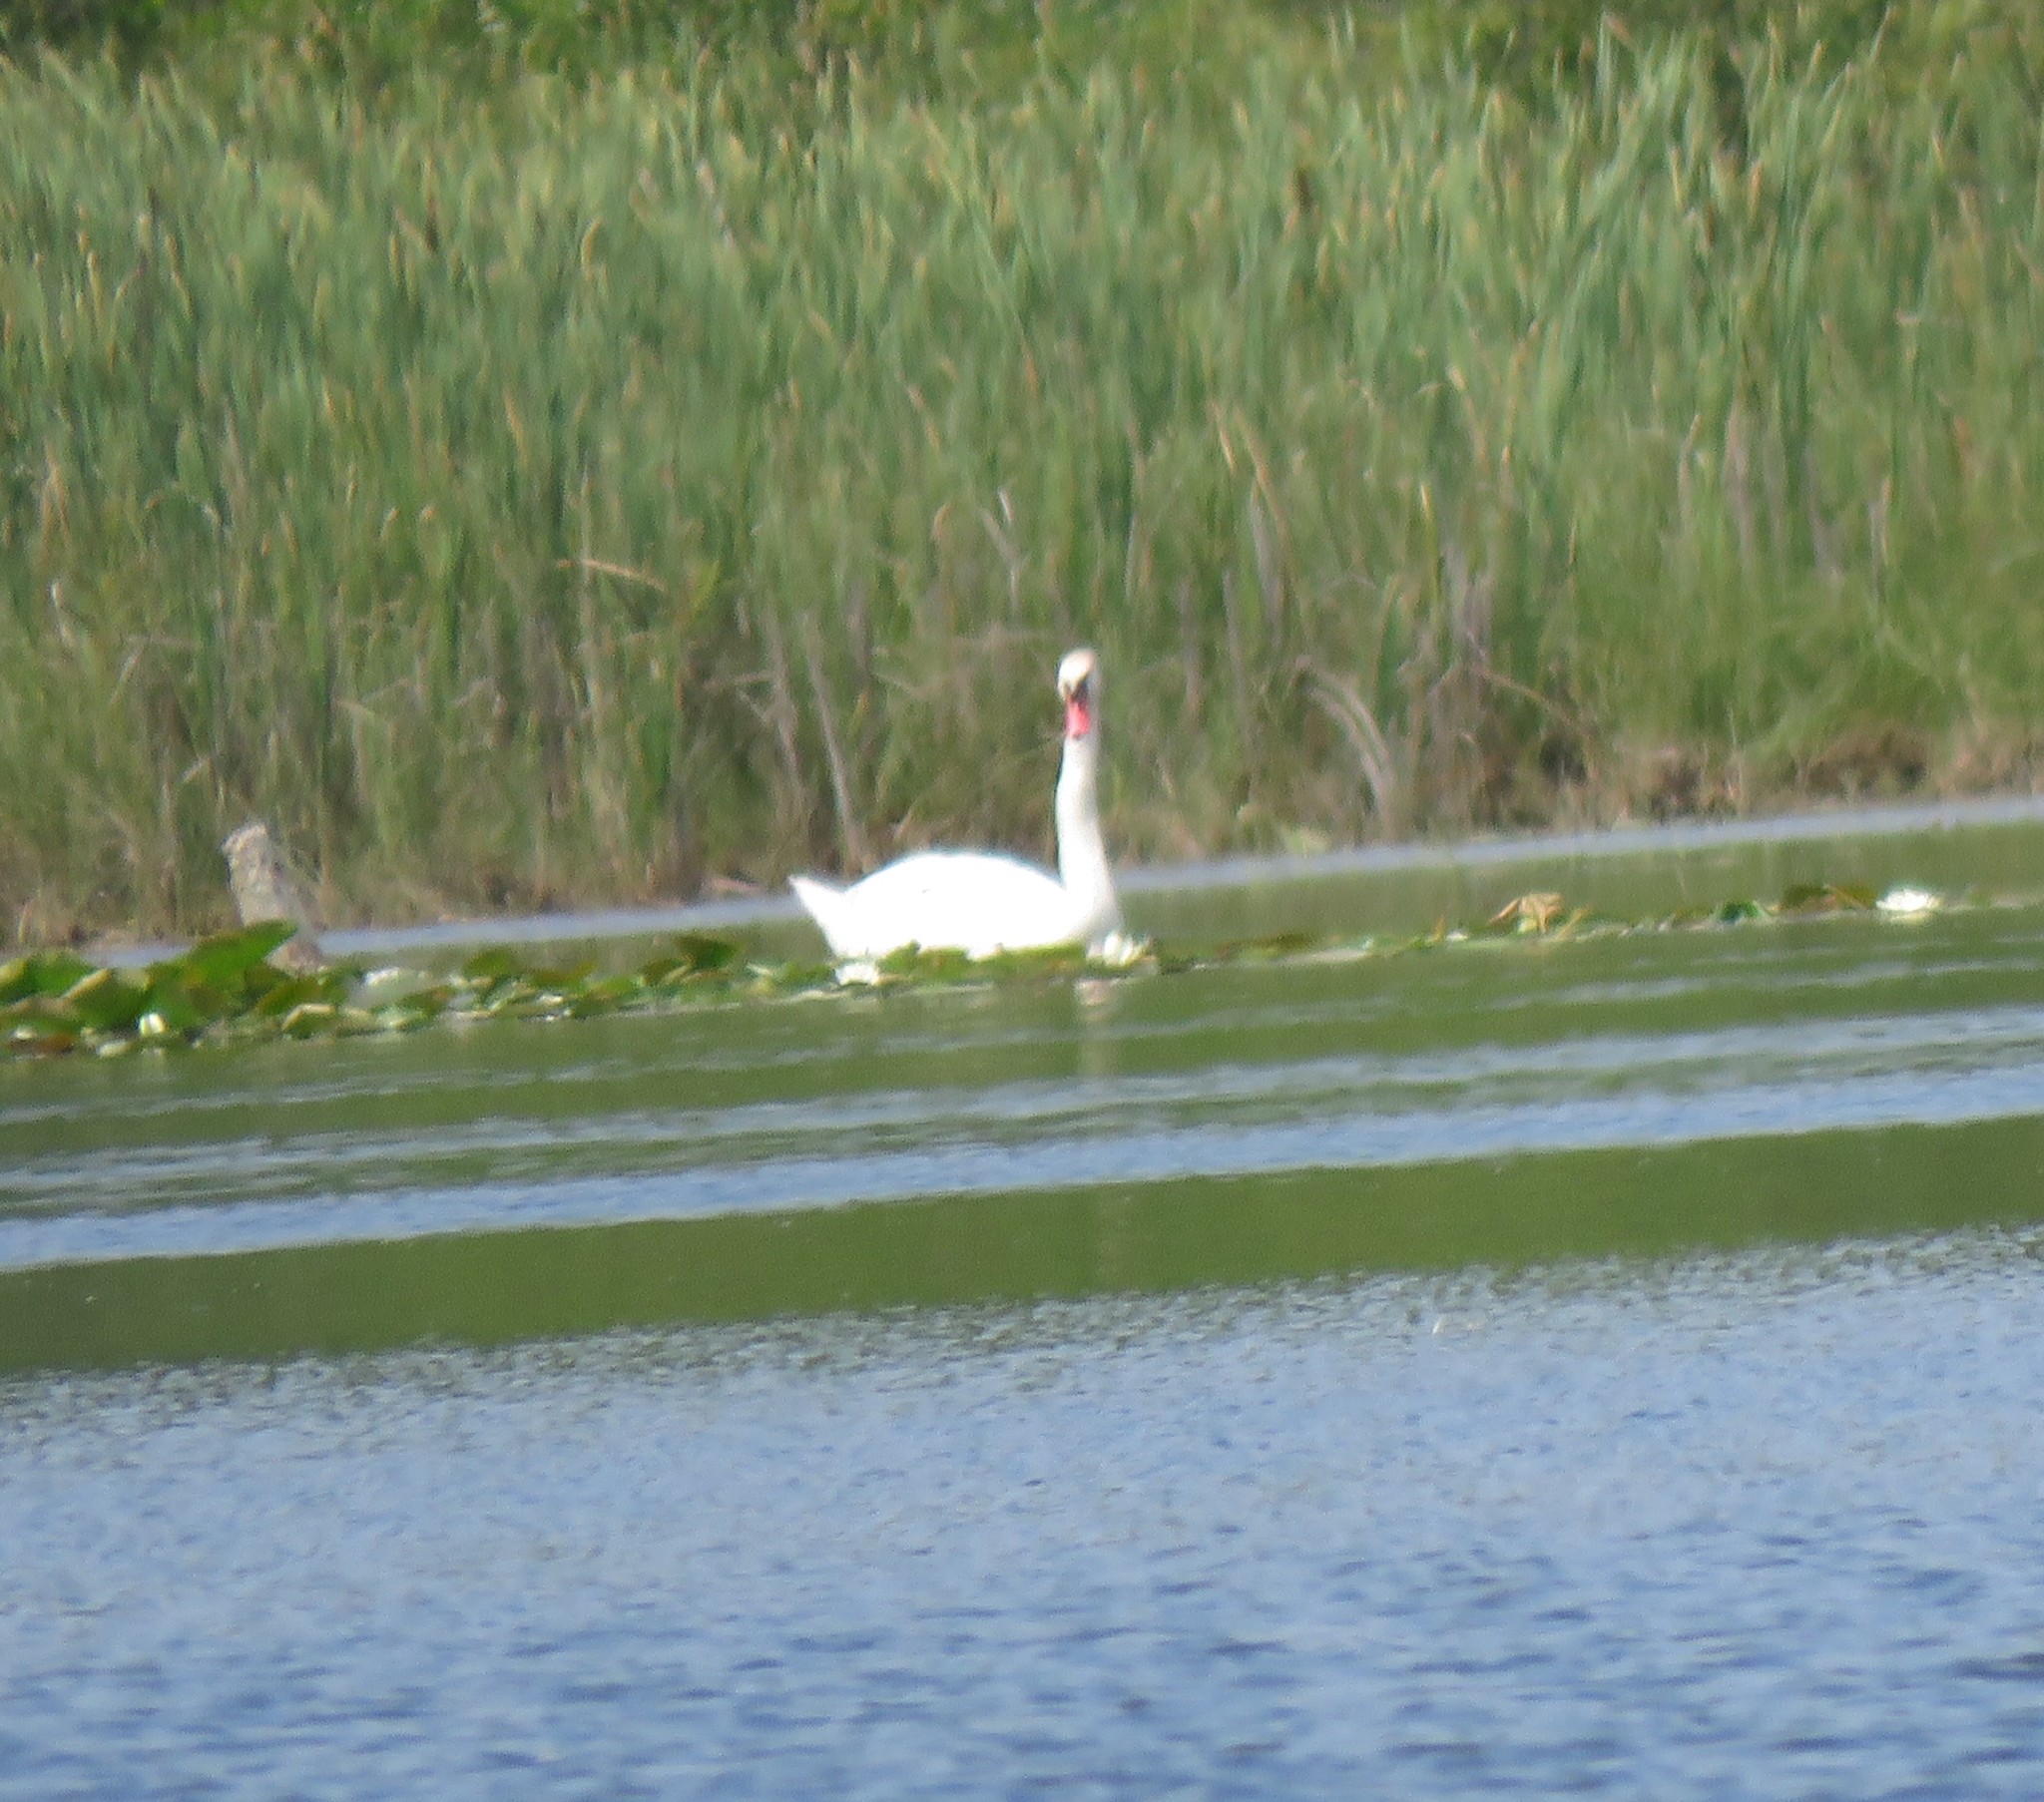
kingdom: Animalia
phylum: Chordata
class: Aves
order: Anseriformes
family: Anatidae
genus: Cygnus
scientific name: Cygnus olor
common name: Mute swan
